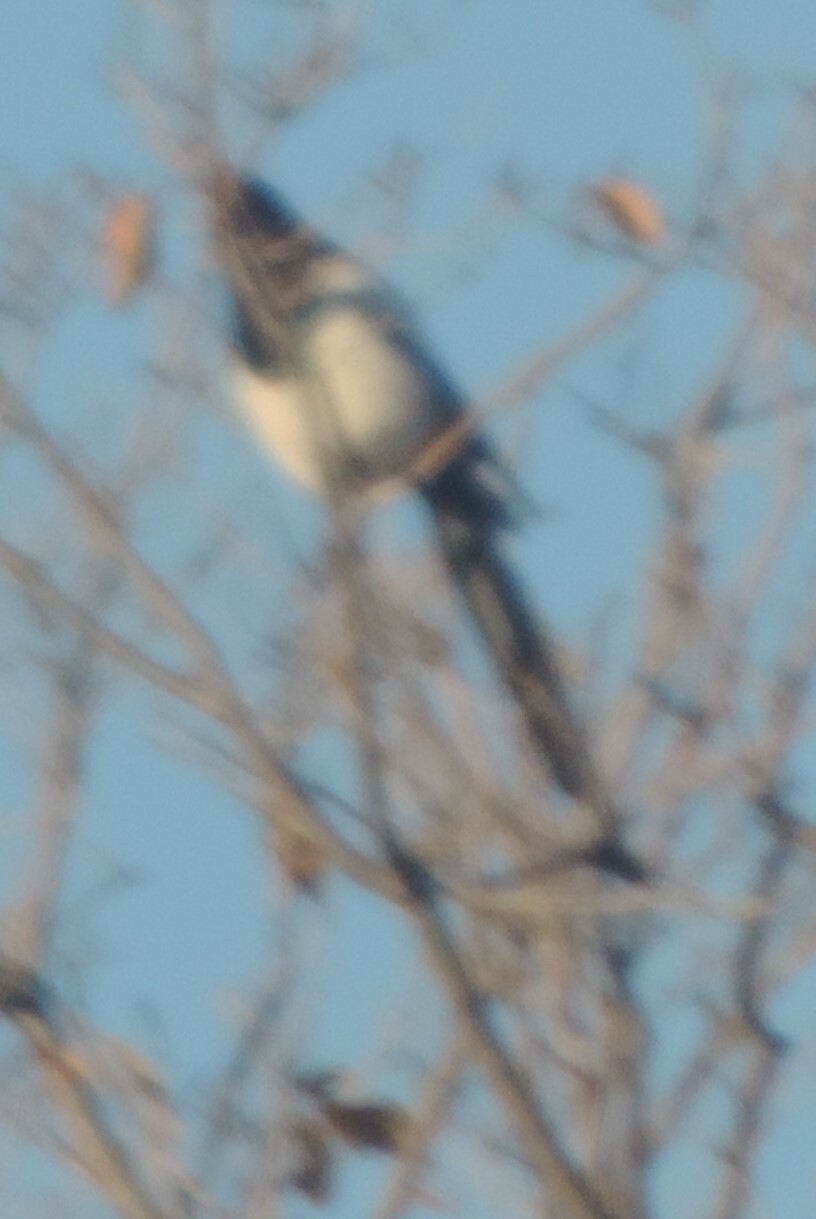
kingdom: Animalia
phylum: Chordata
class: Aves
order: Passeriformes
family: Corvidae
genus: Pica
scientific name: Pica hudsonia
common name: Black-billed magpie
